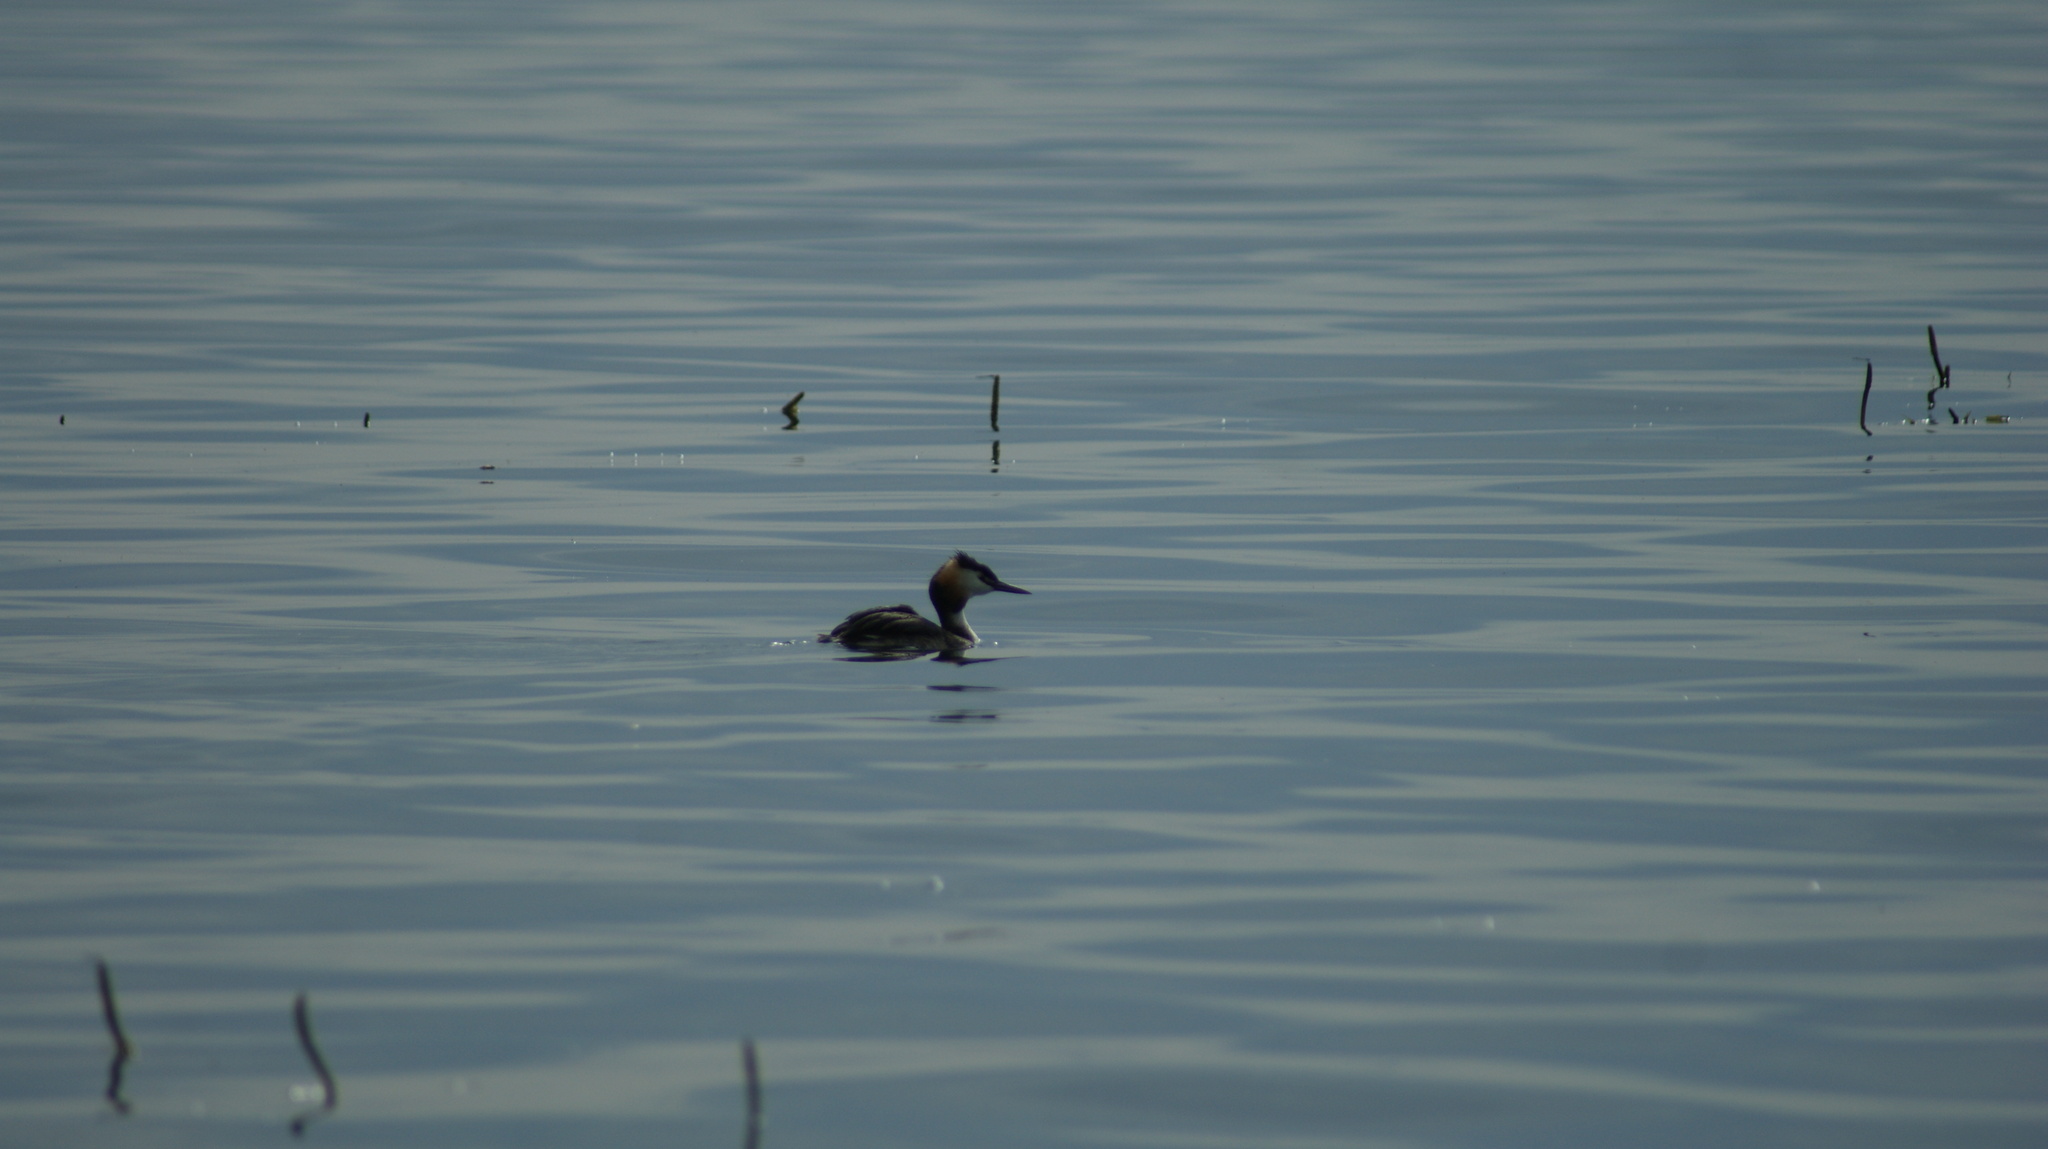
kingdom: Animalia
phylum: Chordata
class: Aves
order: Podicipediformes
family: Podicipedidae
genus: Podiceps
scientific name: Podiceps cristatus
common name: Great crested grebe
